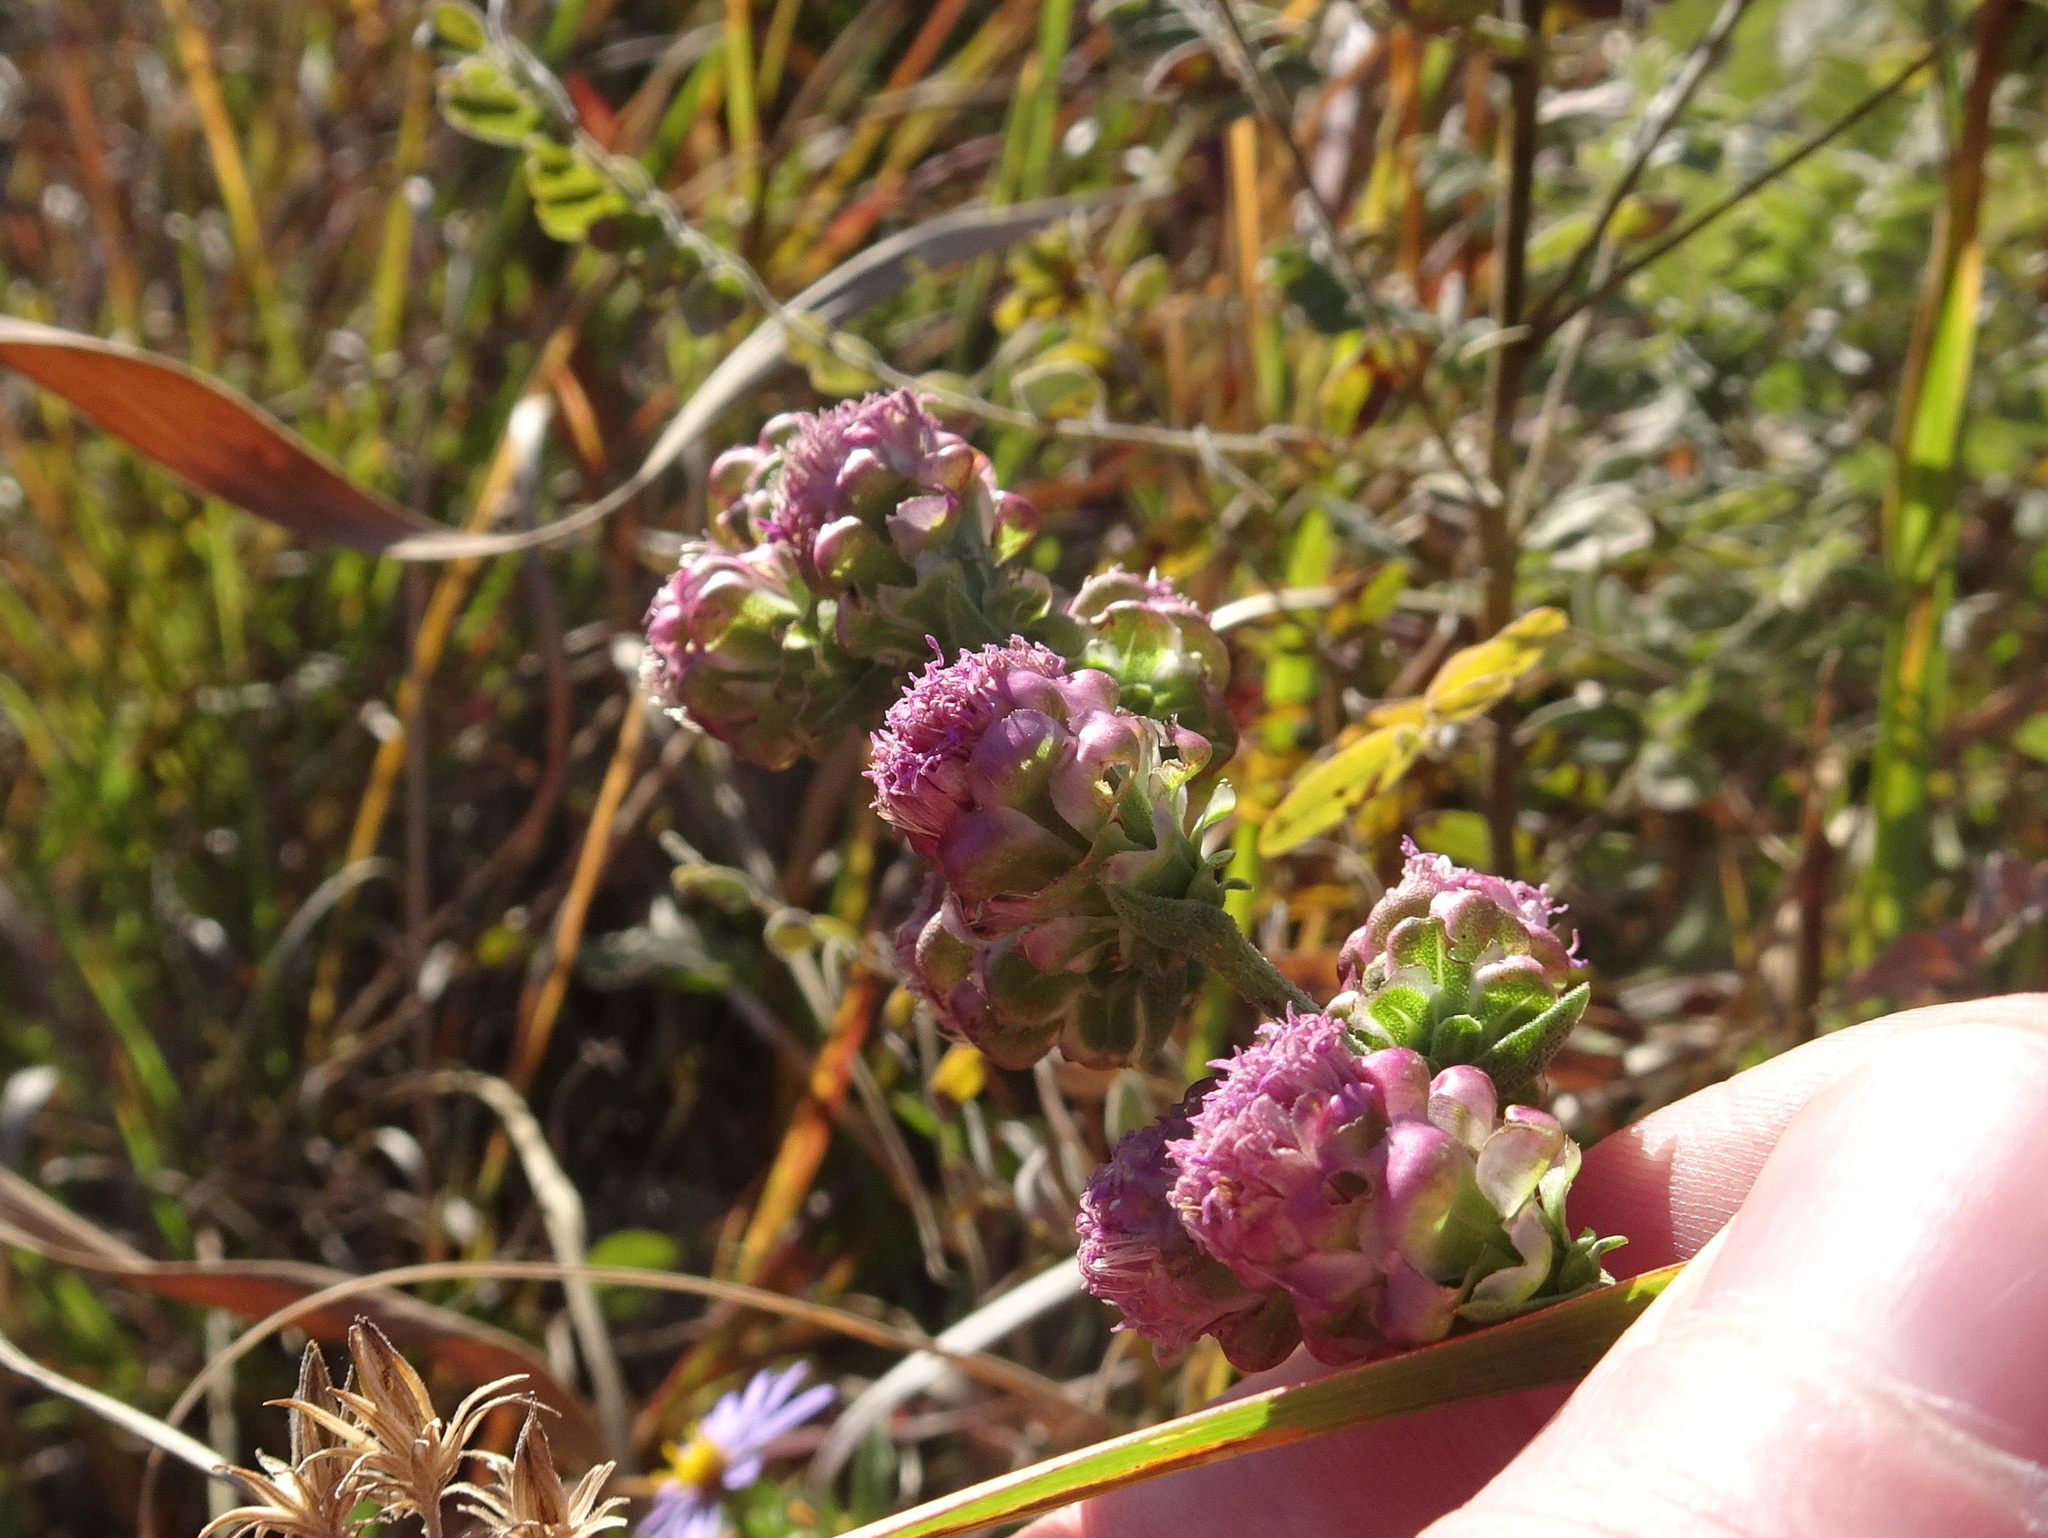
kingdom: Plantae
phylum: Tracheophyta
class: Magnoliopsida
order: Asterales
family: Asteraceae
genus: Liatris
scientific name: Liatris aspera
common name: Lacerate blazing-star
